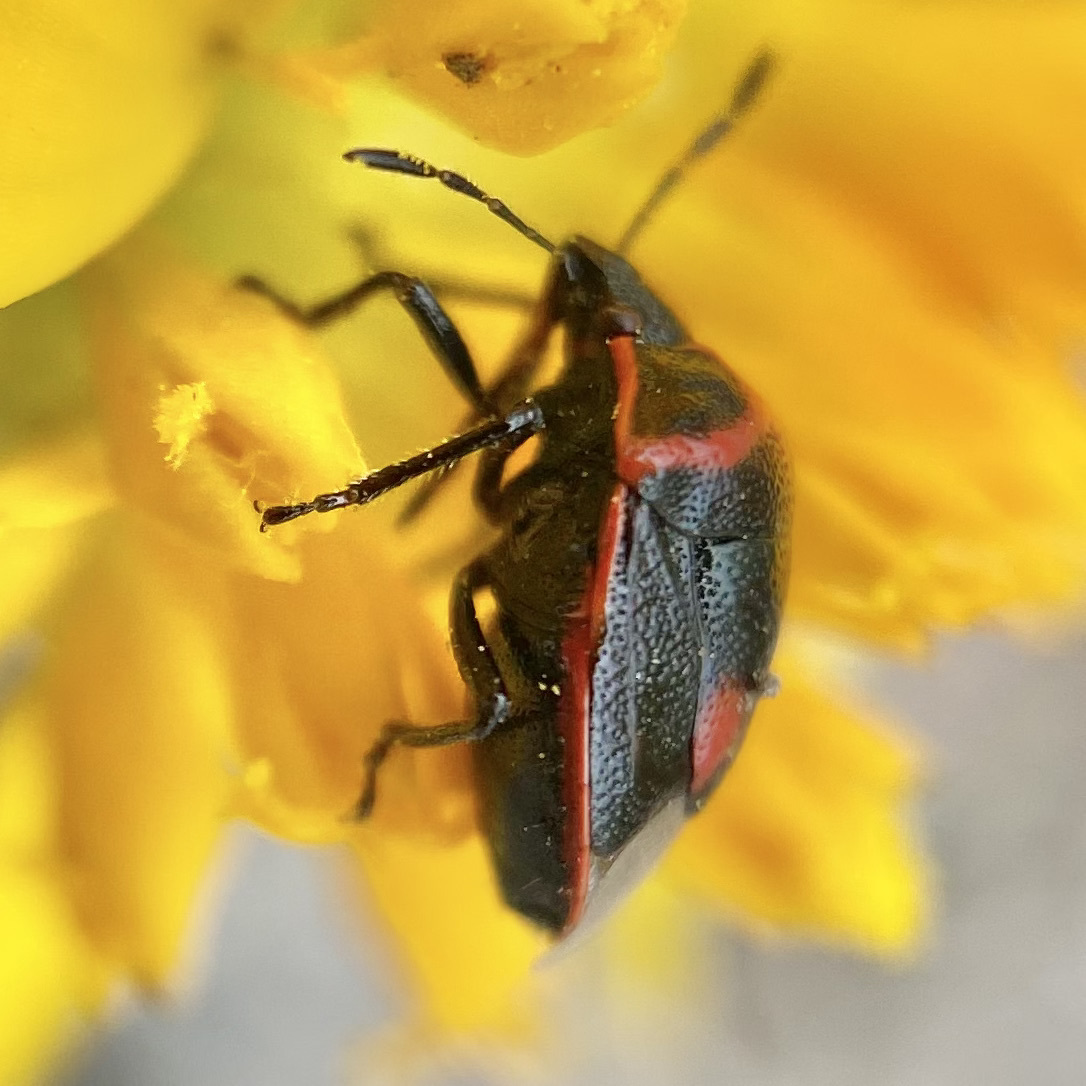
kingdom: Animalia
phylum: Arthropoda
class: Insecta
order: Hemiptera
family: Pentatomidae
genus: Cosmopepla
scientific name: Cosmopepla lintneriana
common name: Twice-stabbed stink bug
